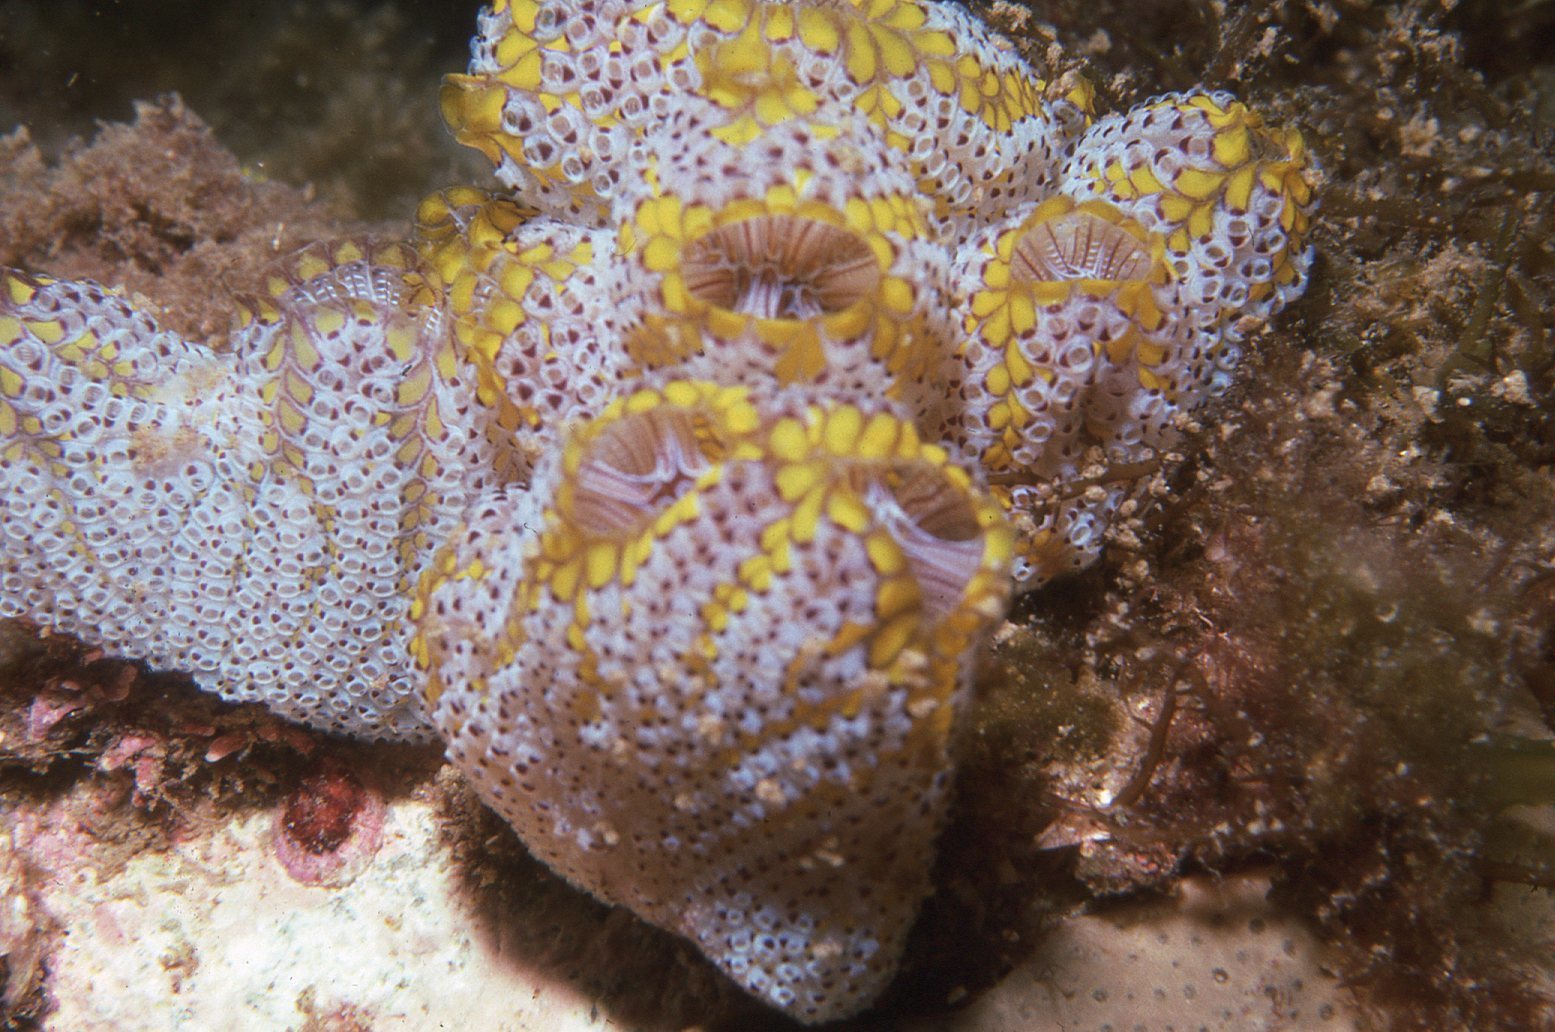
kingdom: Animalia
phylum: Chordata
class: Ascidiacea
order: Stolidobranchia
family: Styelidae
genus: Botrylloides
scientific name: Botrylloides magnicoecus
